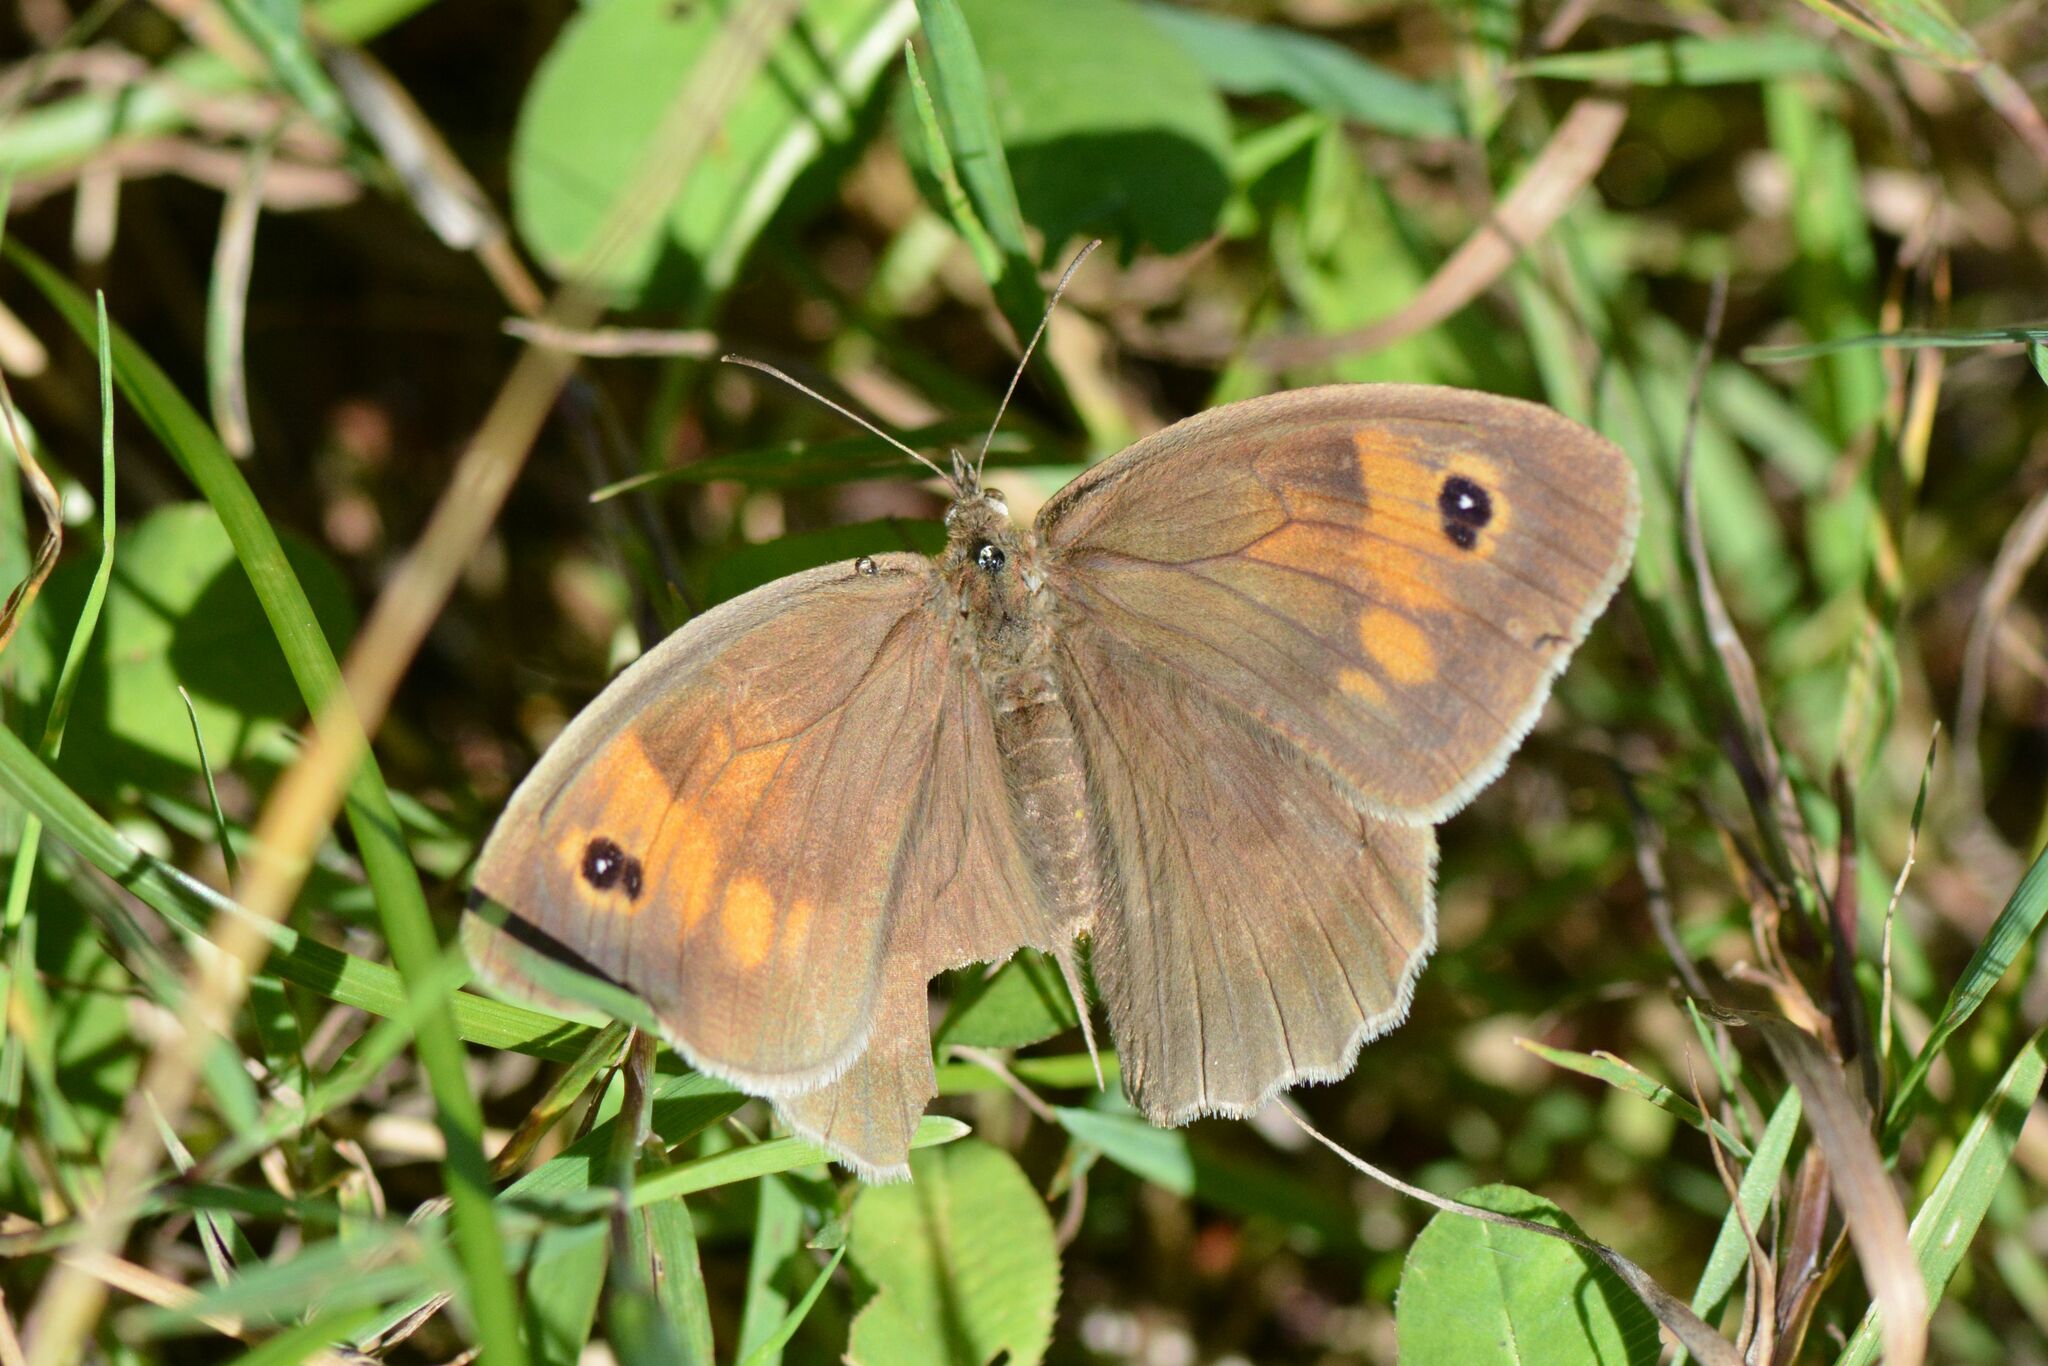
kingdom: Animalia
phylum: Arthropoda
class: Insecta
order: Lepidoptera
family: Nymphalidae
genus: Maniola
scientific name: Maniola jurtina
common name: Meadow brown
